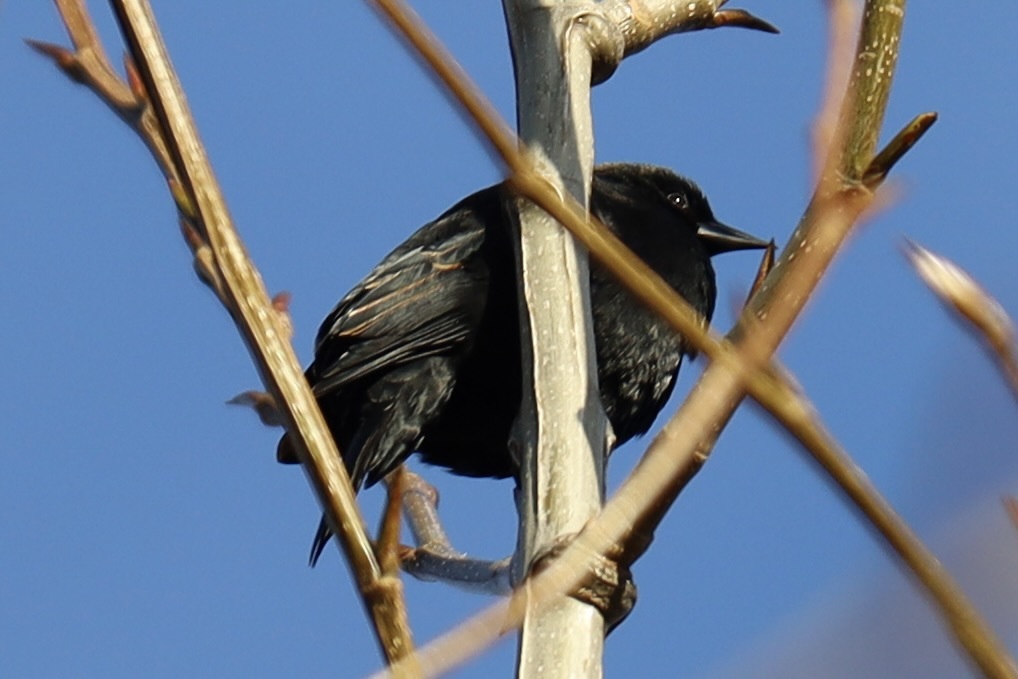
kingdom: Animalia
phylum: Chordata
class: Aves
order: Passeriformes
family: Icteridae
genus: Agelaius
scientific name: Agelaius phoeniceus
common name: Red-winged blackbird
